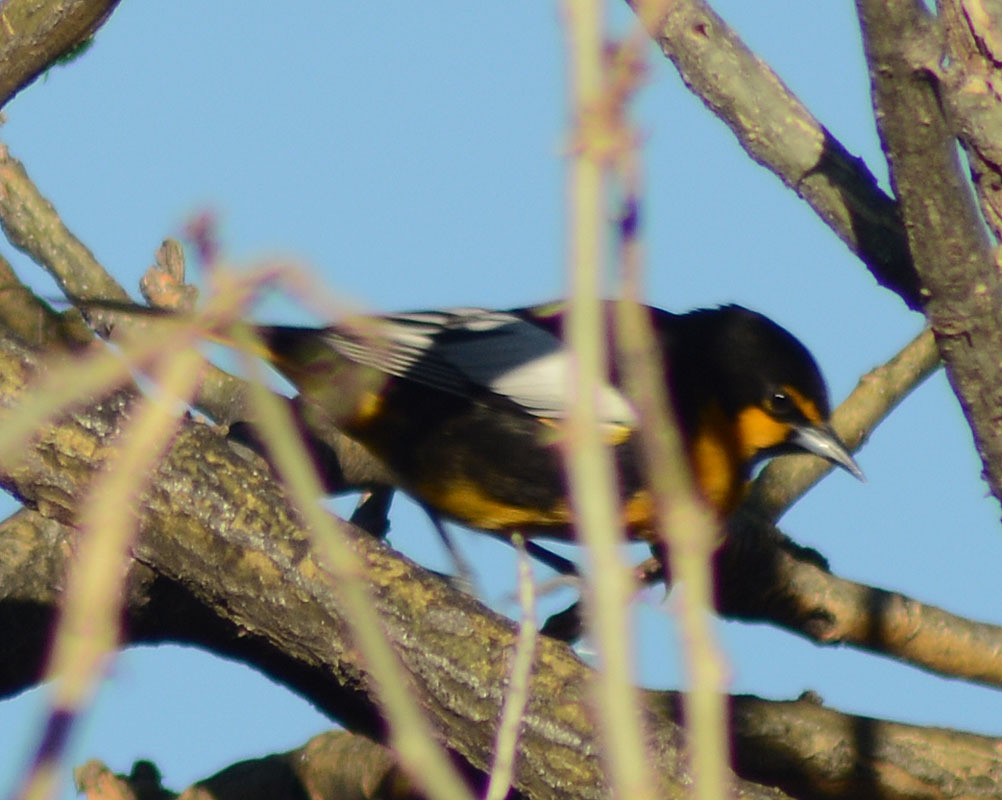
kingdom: Animalia
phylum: Chordata
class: Aves
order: Passeriformes
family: Icteridae
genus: Icterus
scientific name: Icterus abeillei
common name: Black-backed oriole
